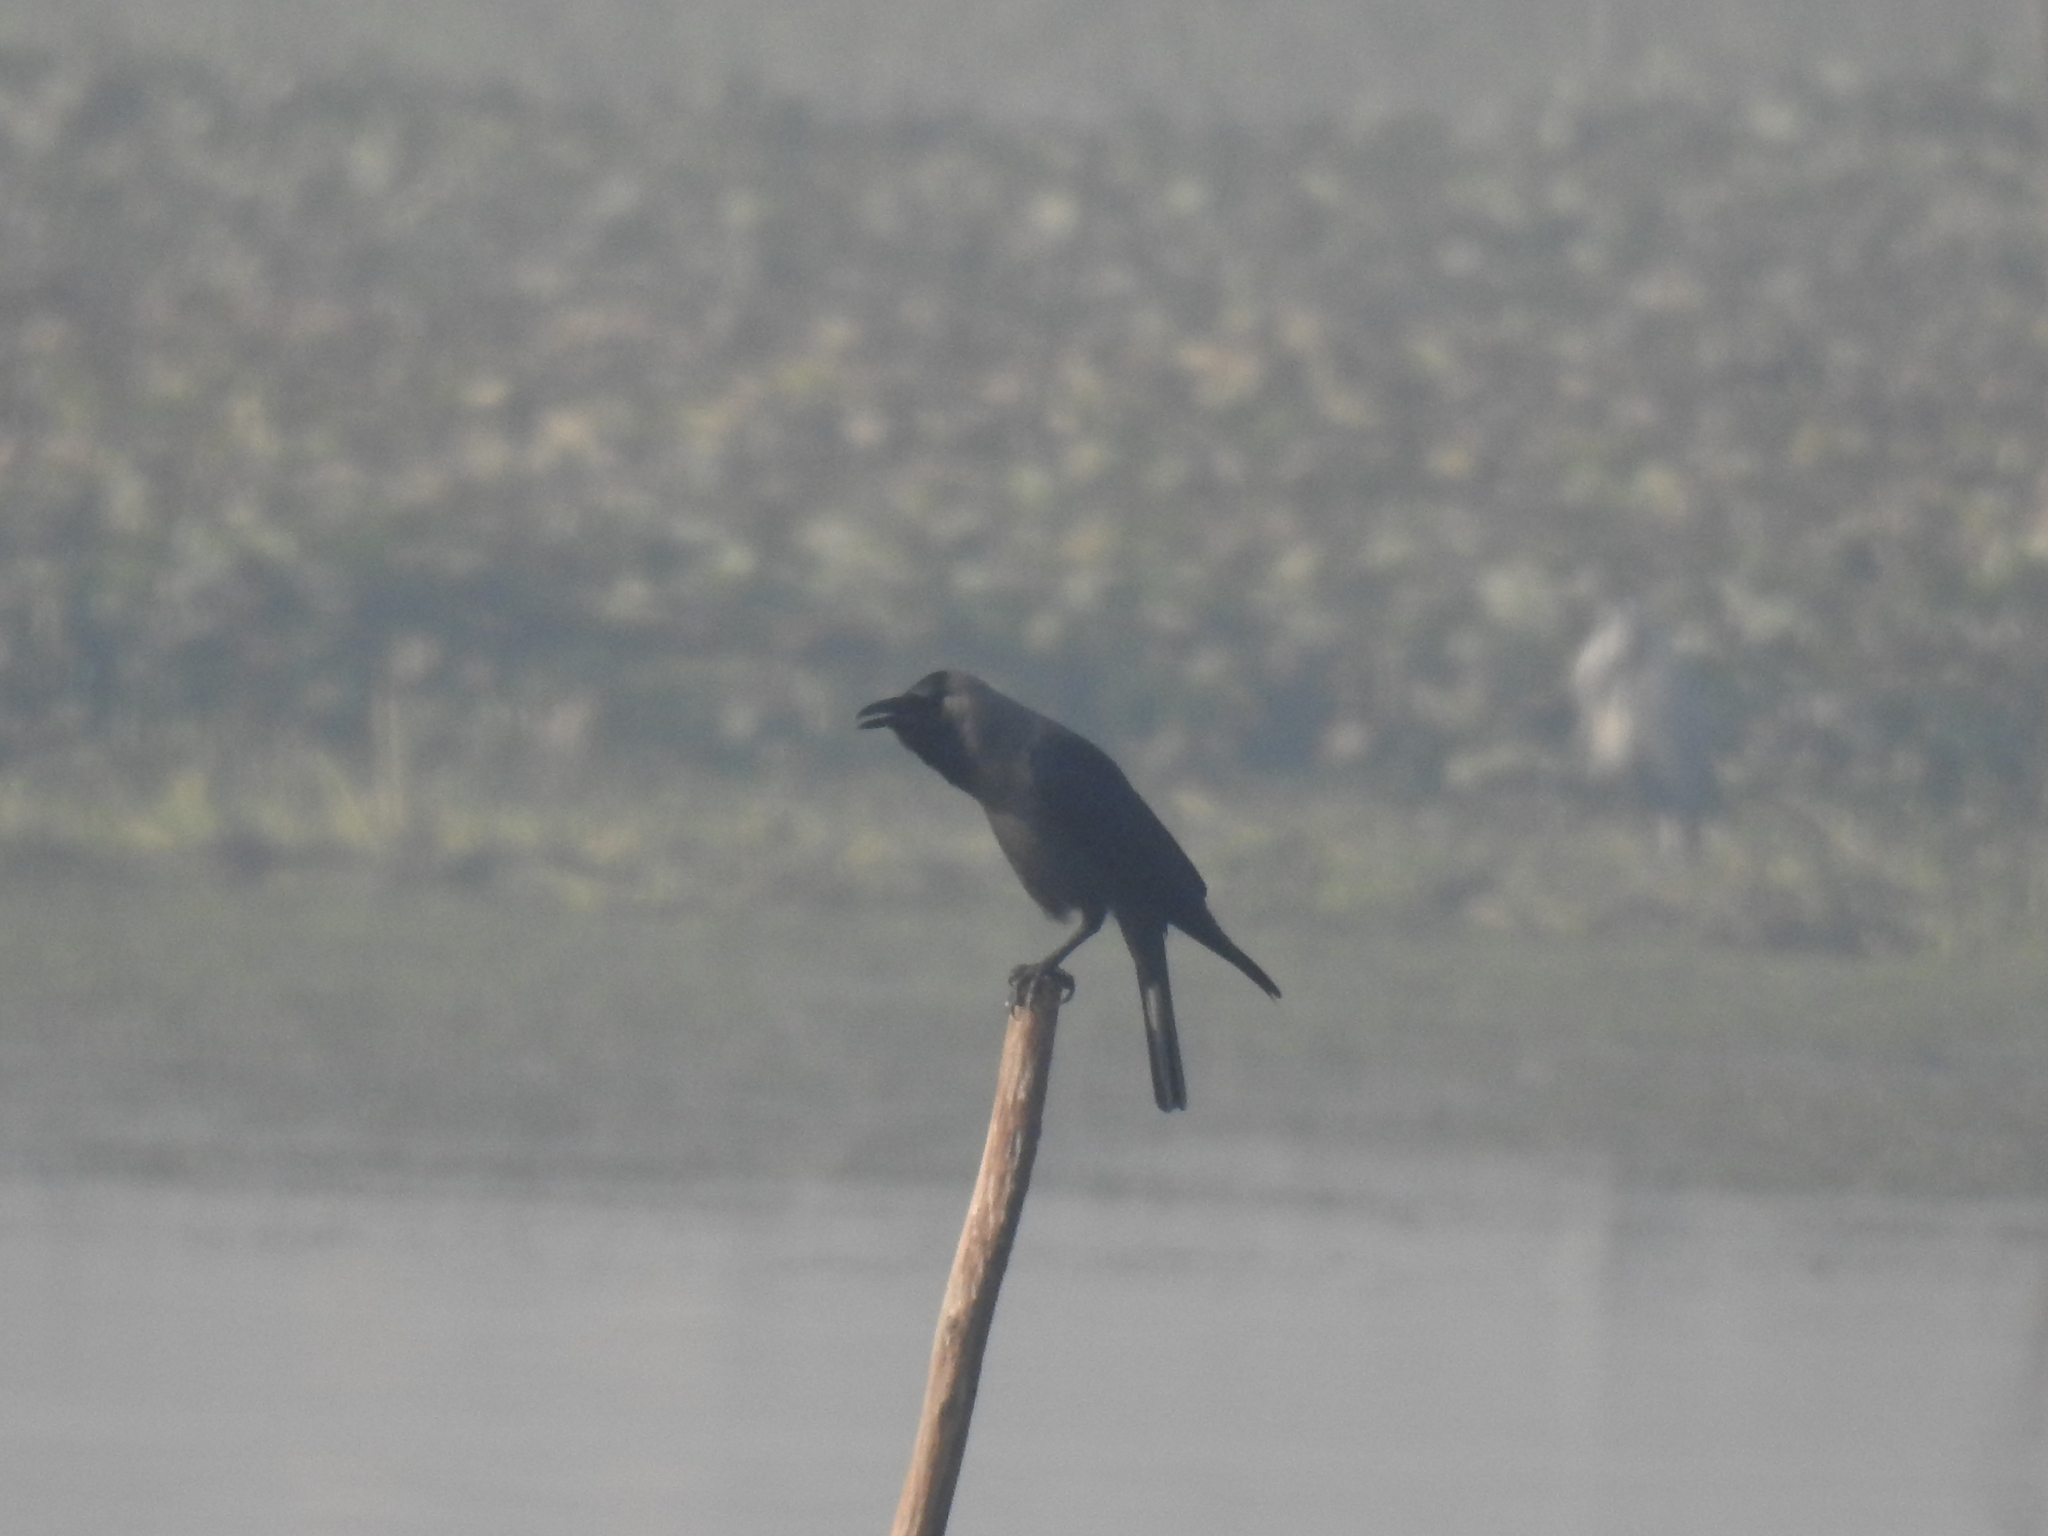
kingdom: Animalia
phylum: Chordata
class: Aves
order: Passeriformes
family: Corvidae
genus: Corvus
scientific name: Corvus splendens
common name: House crow
